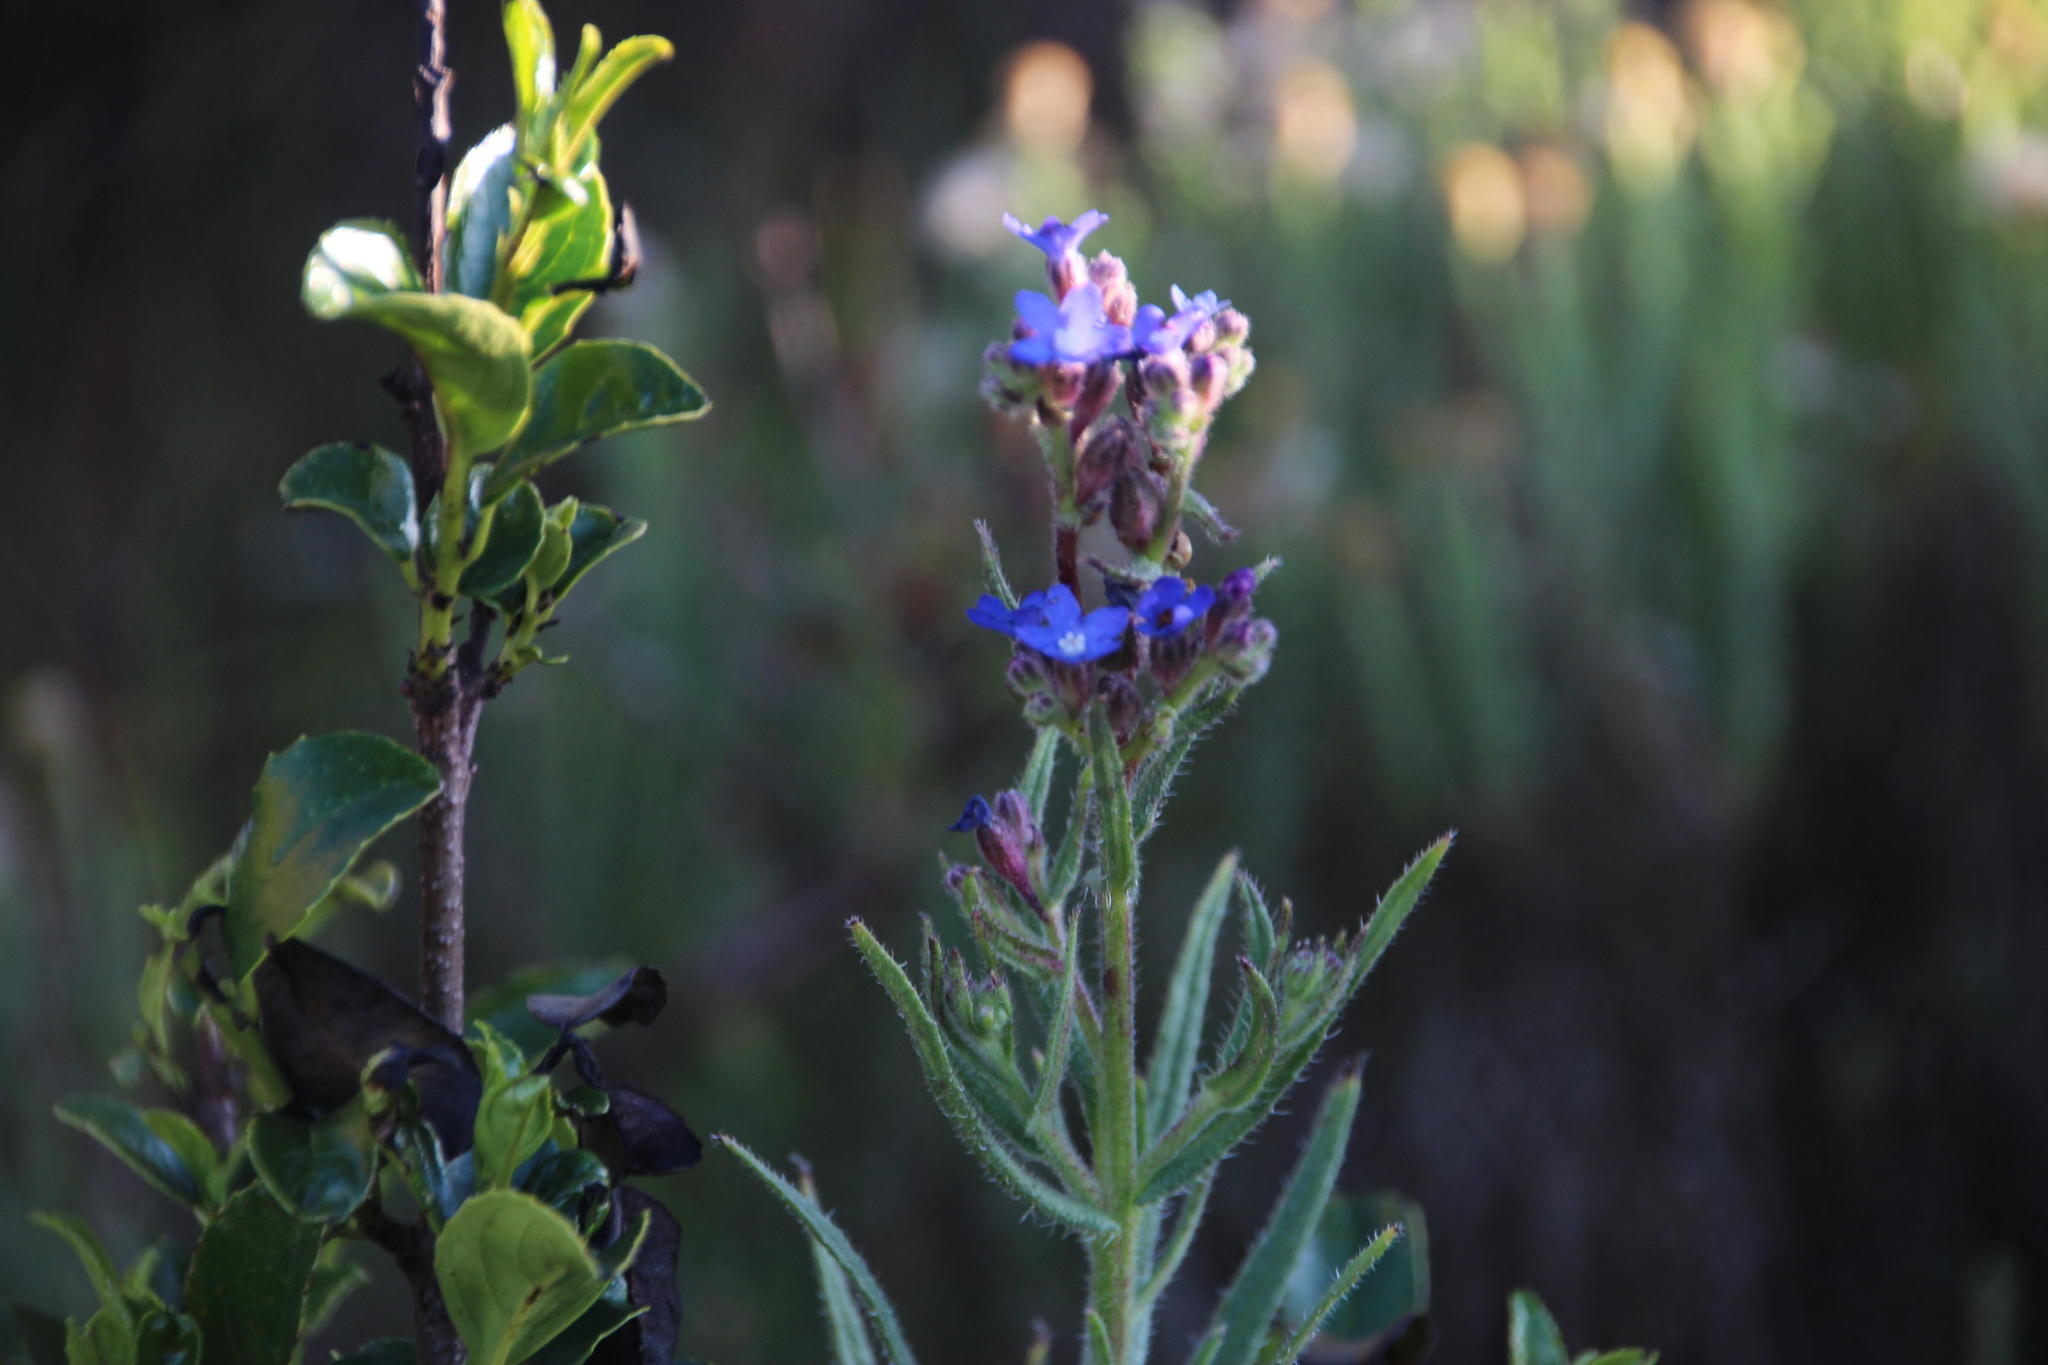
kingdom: Plantae
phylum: Tracheophyta
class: Magnoliopsida
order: Boraginales
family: Boraginaceae
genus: Anchusa
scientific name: Anchusa capensis
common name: Cape bugloss
